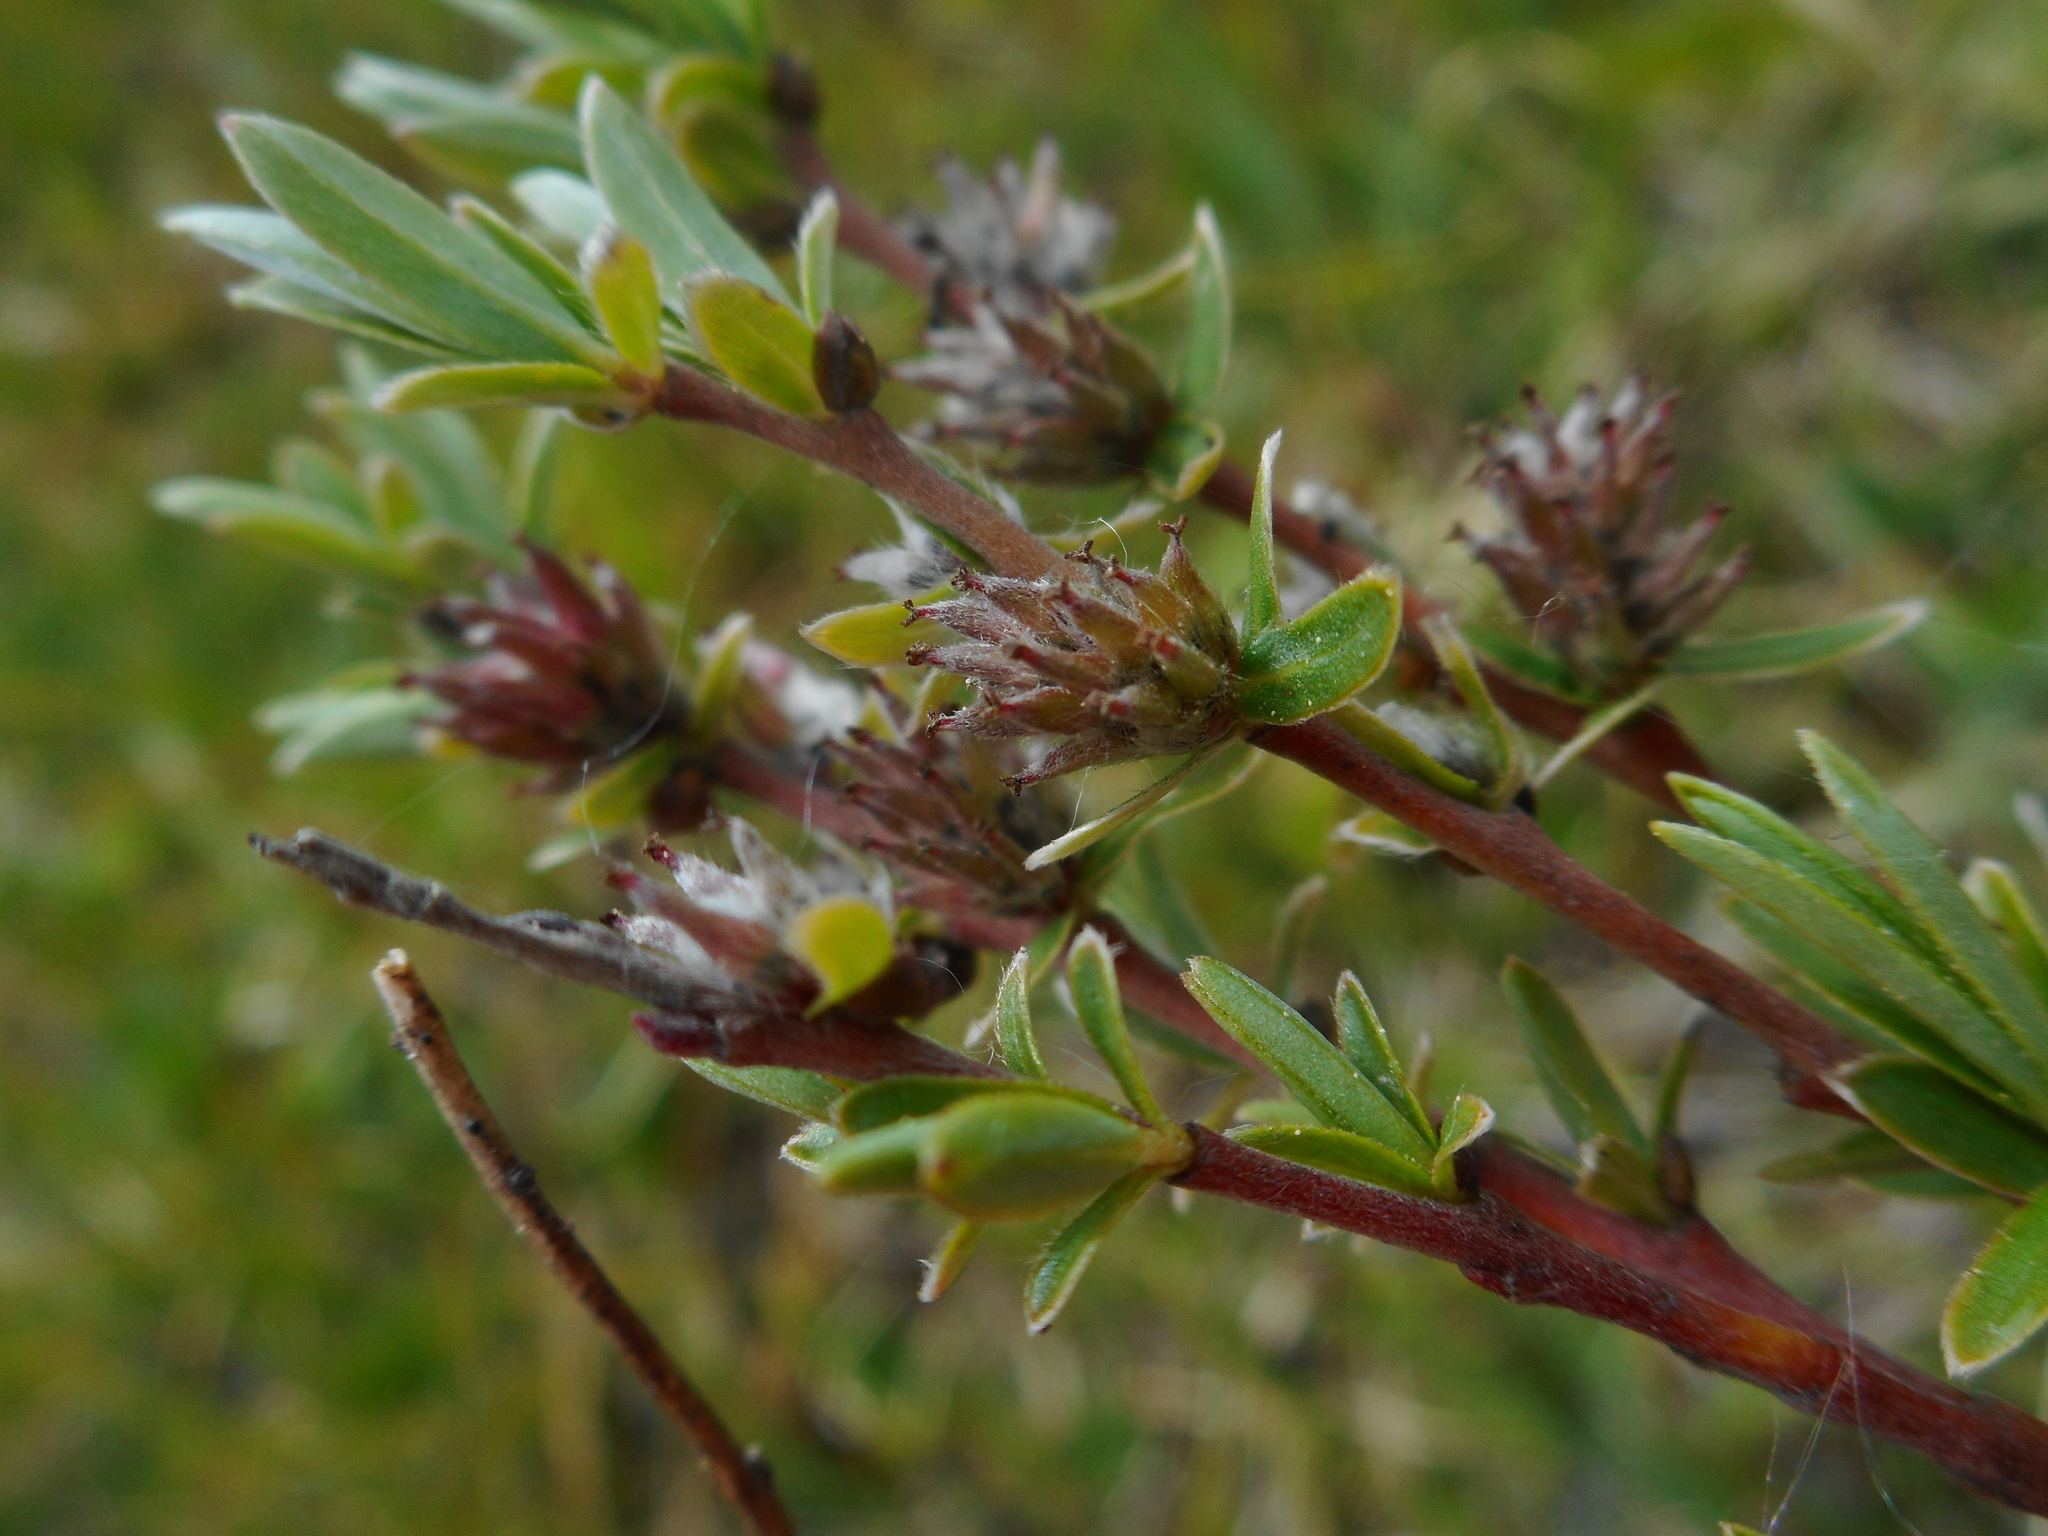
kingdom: Plantae
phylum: Tracheophyta
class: Magnoliopsida
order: Malpighiales
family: Salicaceae
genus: Salix
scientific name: Salix rosmarinifolia
